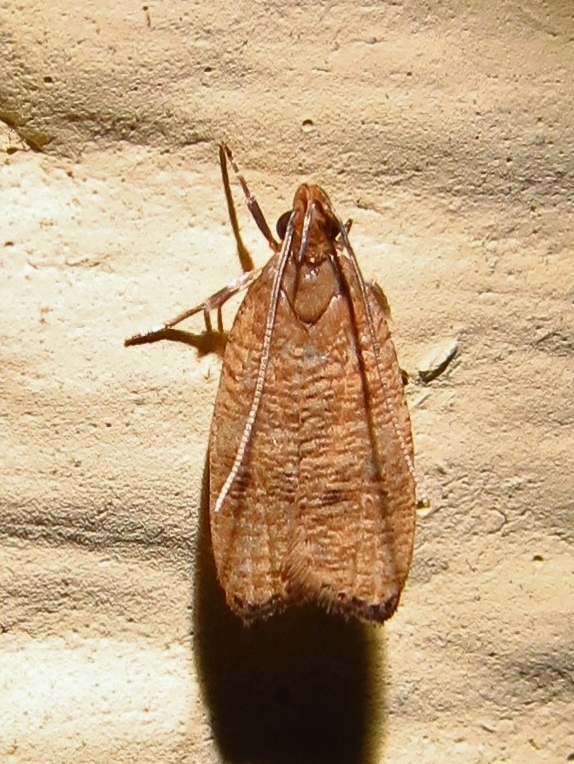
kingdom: Animalia
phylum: Arthropoda
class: Insecta
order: Lepidoptera
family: Depressariidae
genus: Psilocorsis
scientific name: Psilocorsis cryptolechiella
